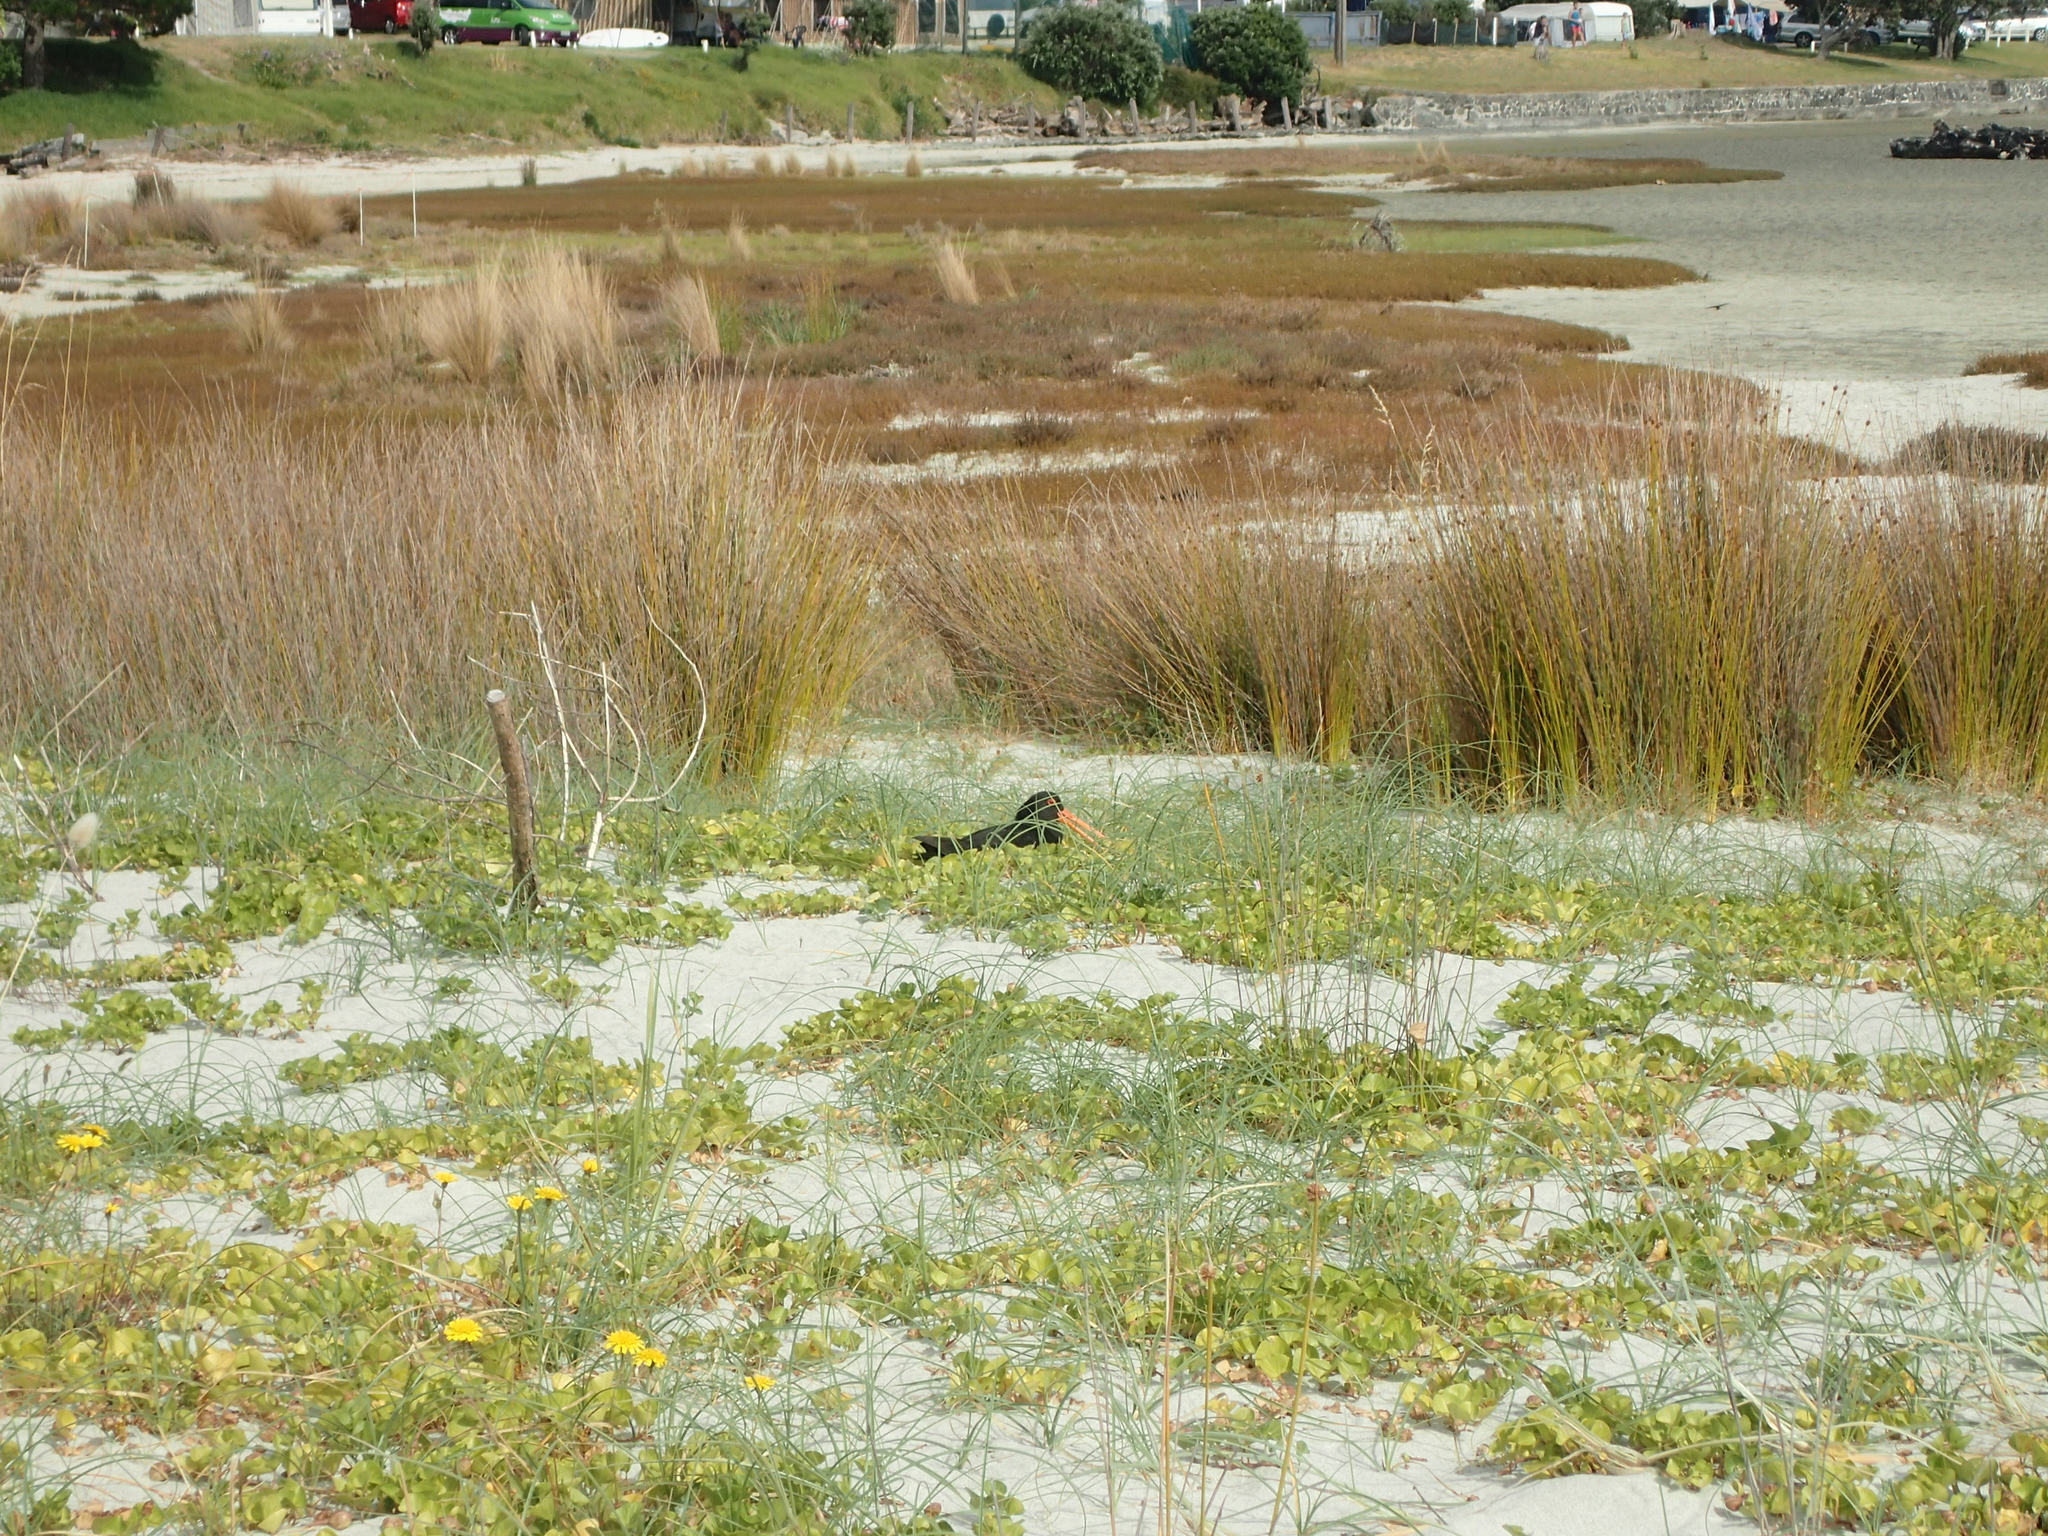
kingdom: Animalia
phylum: Chordata
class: Aves
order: Charadriiformes
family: Haematopodidae
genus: Haematopus
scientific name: Haematopus unicolor
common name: Variable oystercatcher
